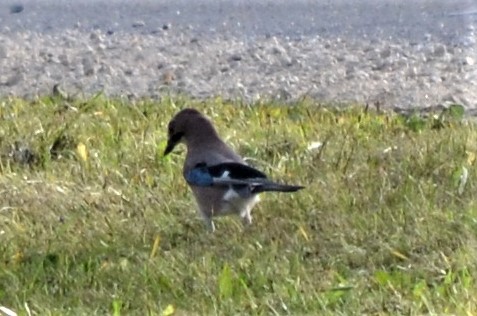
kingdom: Animalia
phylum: Chordata
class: Aves
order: Passeriformes
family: Corvidae
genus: Garrulus
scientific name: Garrulus glandarius
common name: Eurasian jay
